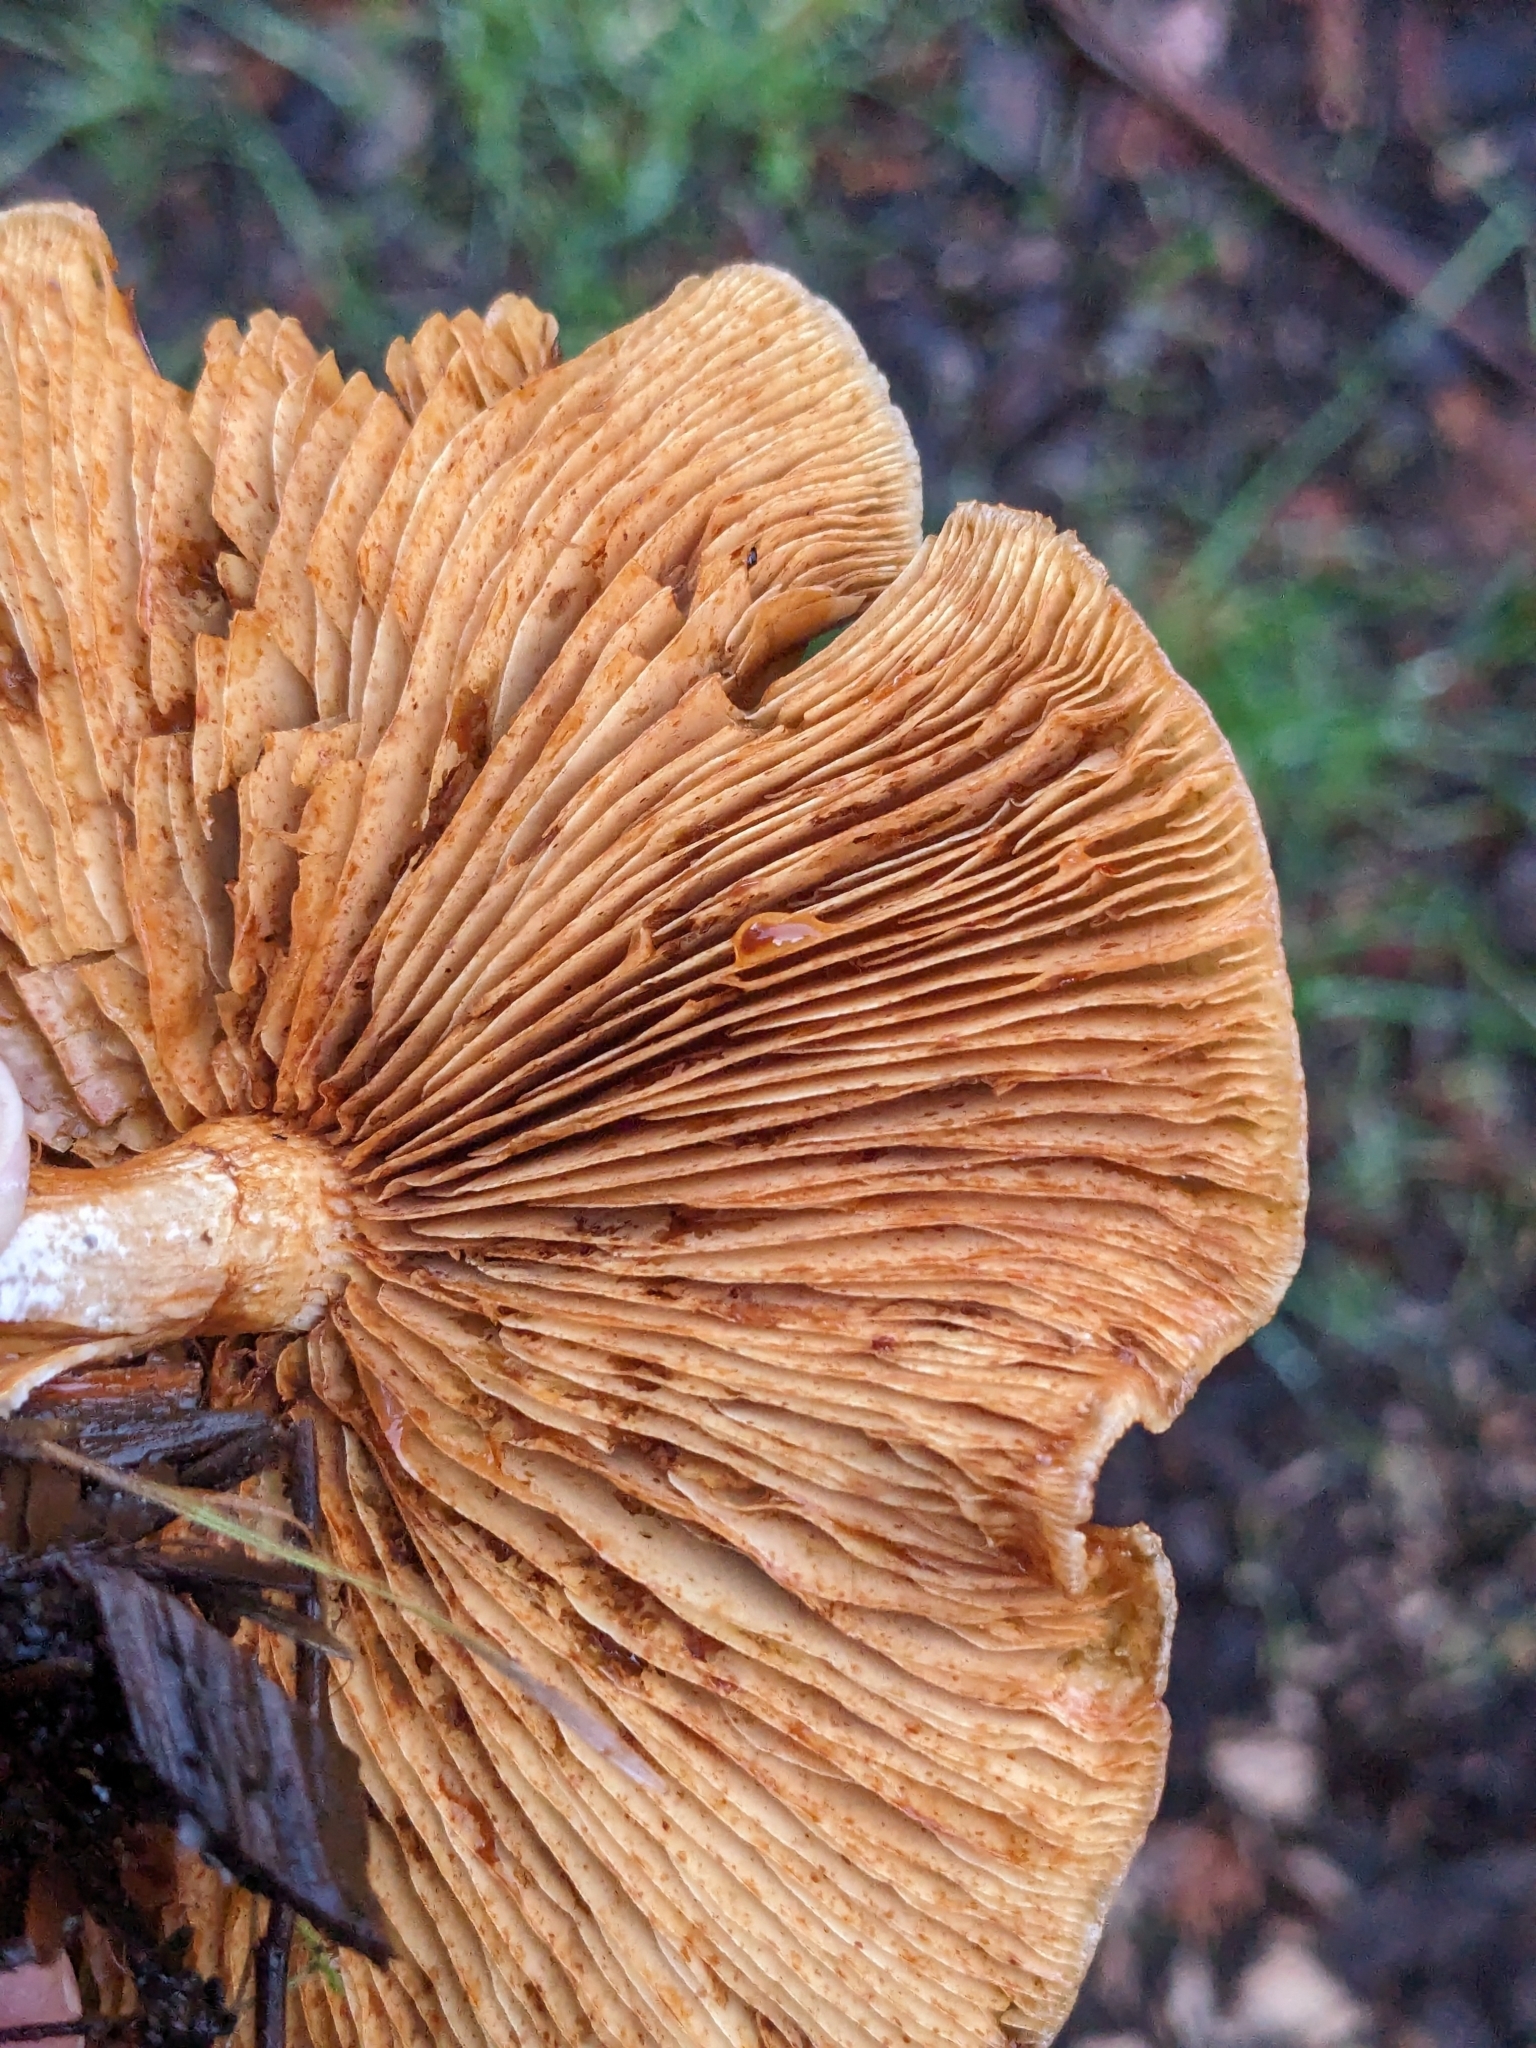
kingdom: Fungi
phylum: Basidiomycota
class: Agaricomycetes
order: Agaricales
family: Hymenogastraceae
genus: Gymnopilus
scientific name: Gymnopilus aurantiophyllus
